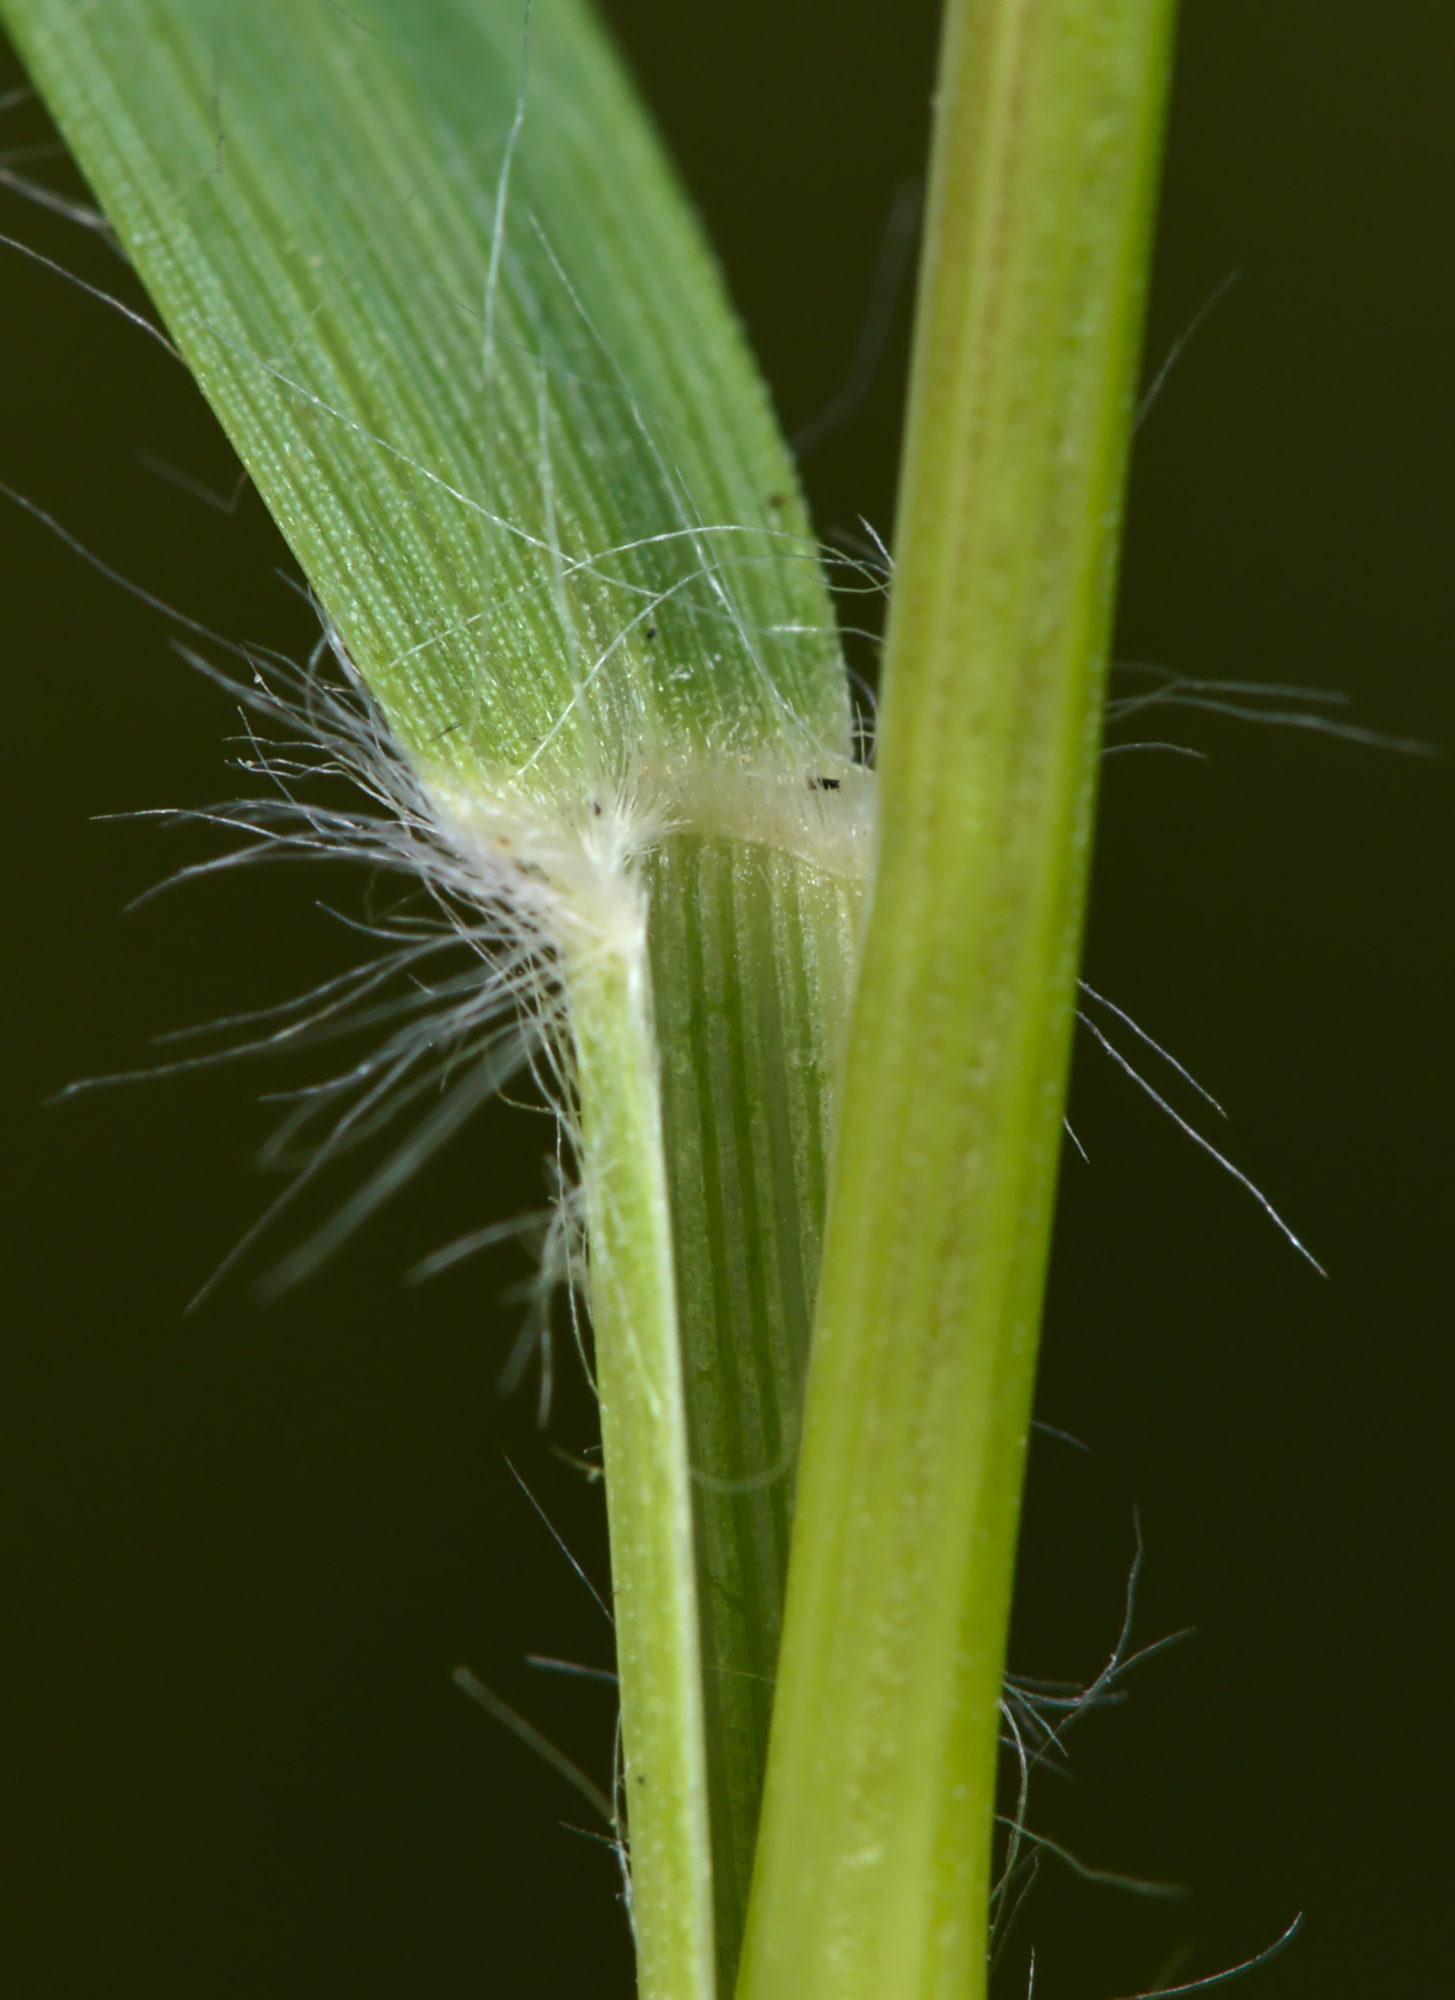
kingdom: Plantae
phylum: Tracheophyta
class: Liliopsida
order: Poales
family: Poaceae
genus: Danthonia
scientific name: Danthonia decumbens
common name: Common heathgrass
